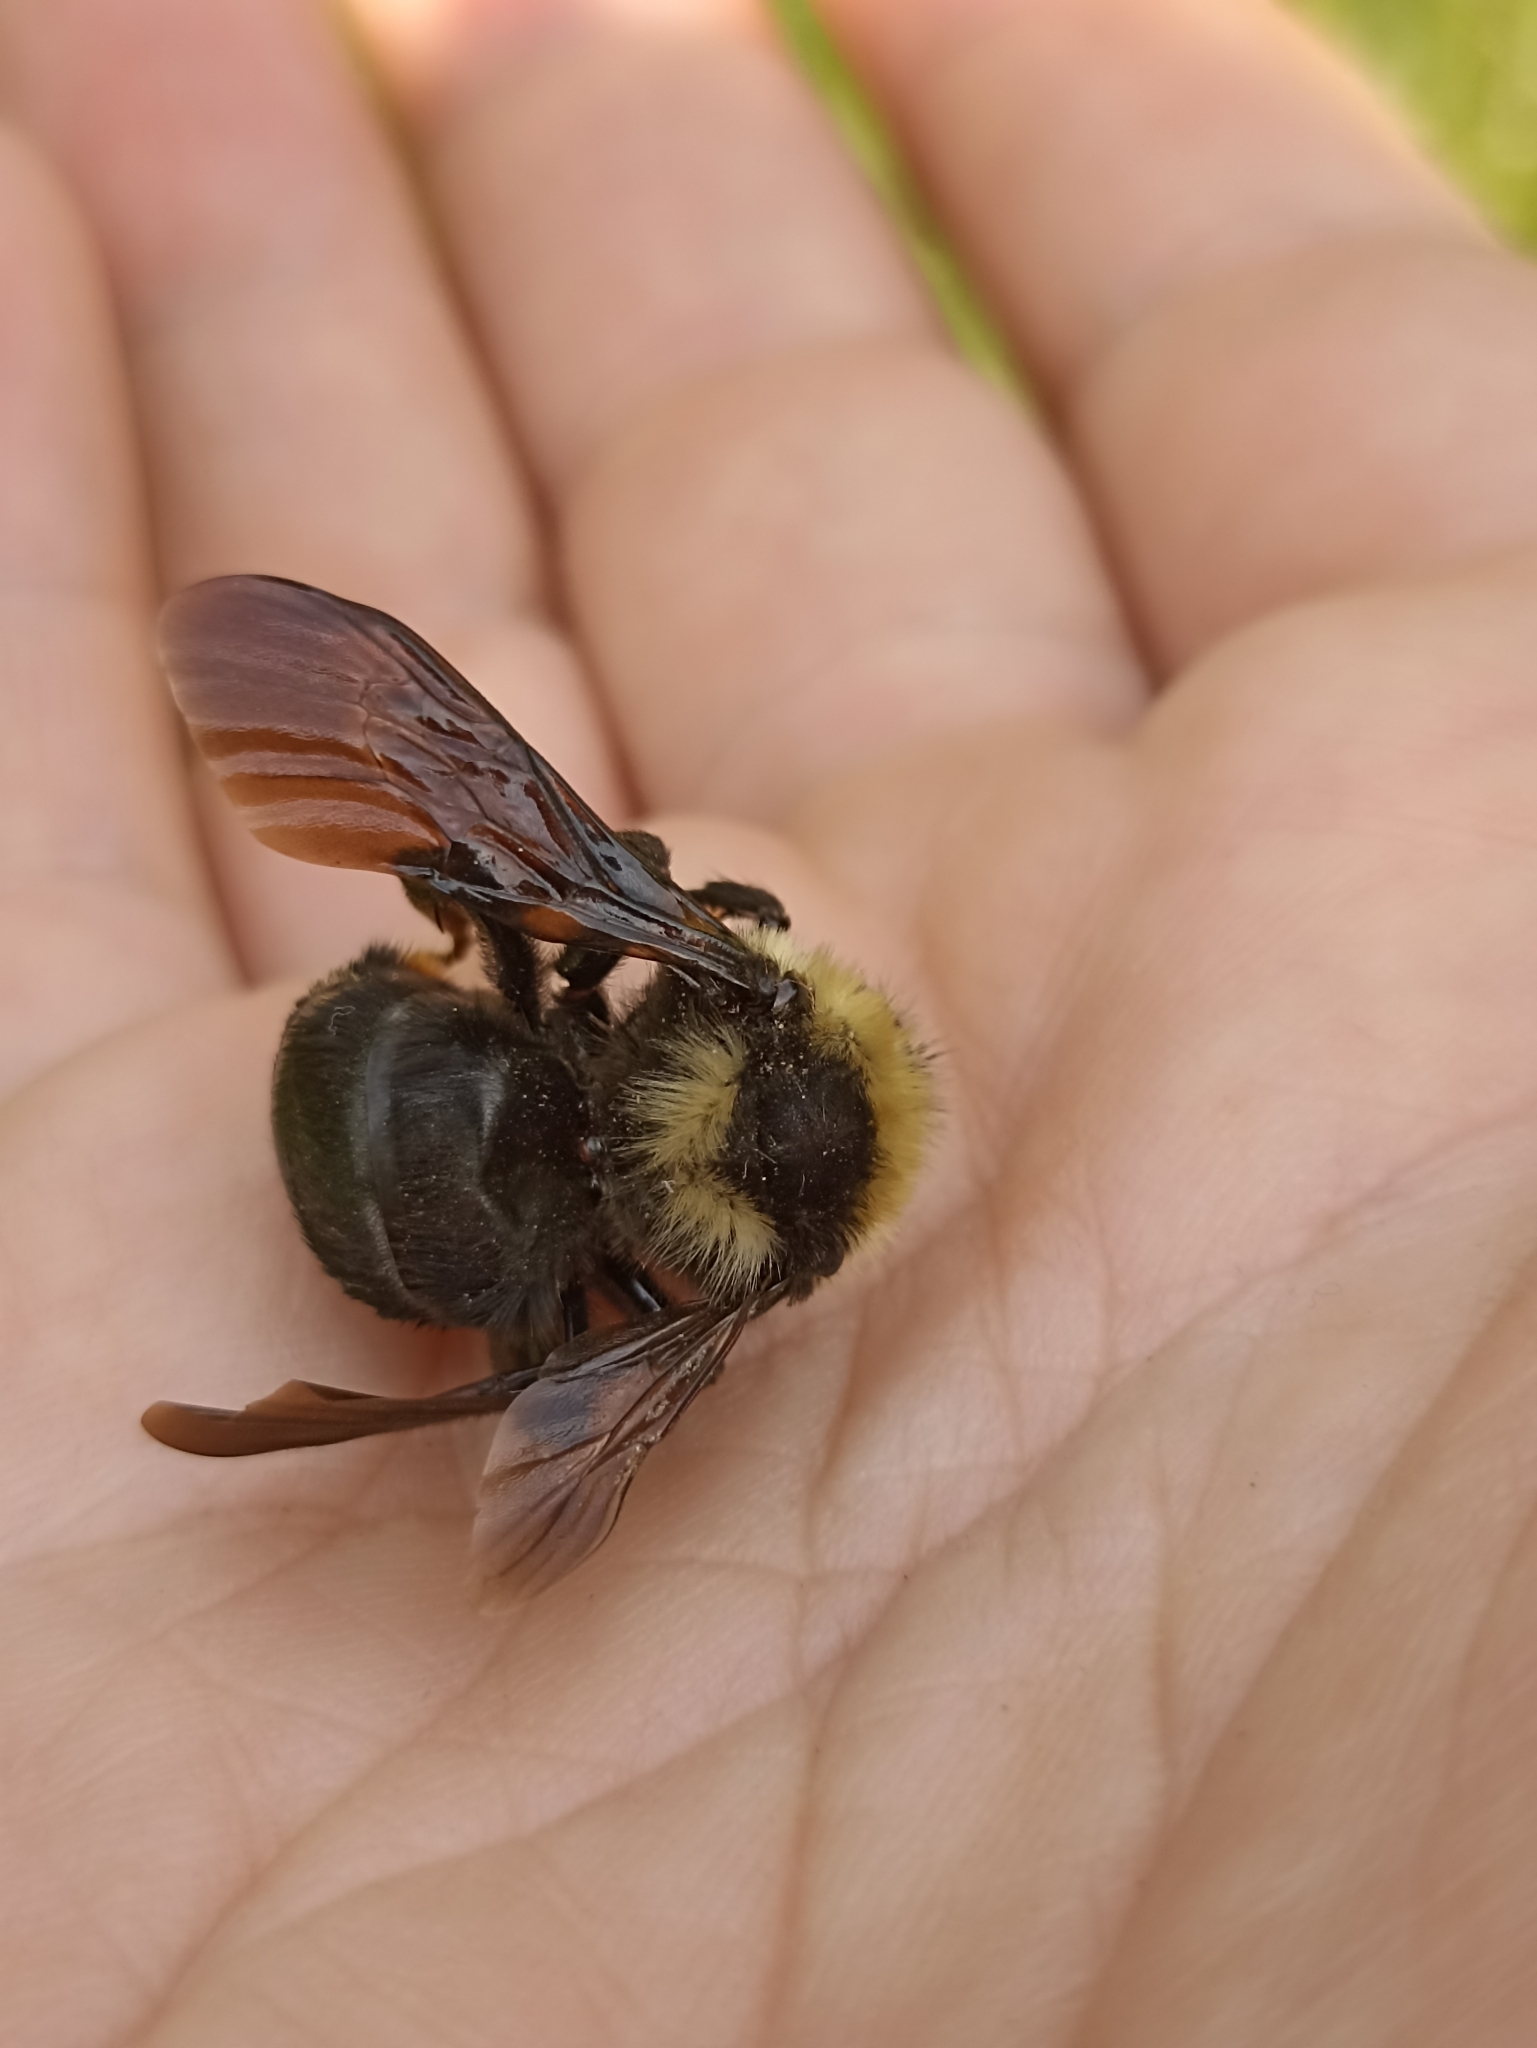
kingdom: Animalia
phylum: Arthropoda
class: Insecta
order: Hymenoptera
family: Apidae
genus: Bombus
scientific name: Bombus rupestris
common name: Hill cuckoo-bee
